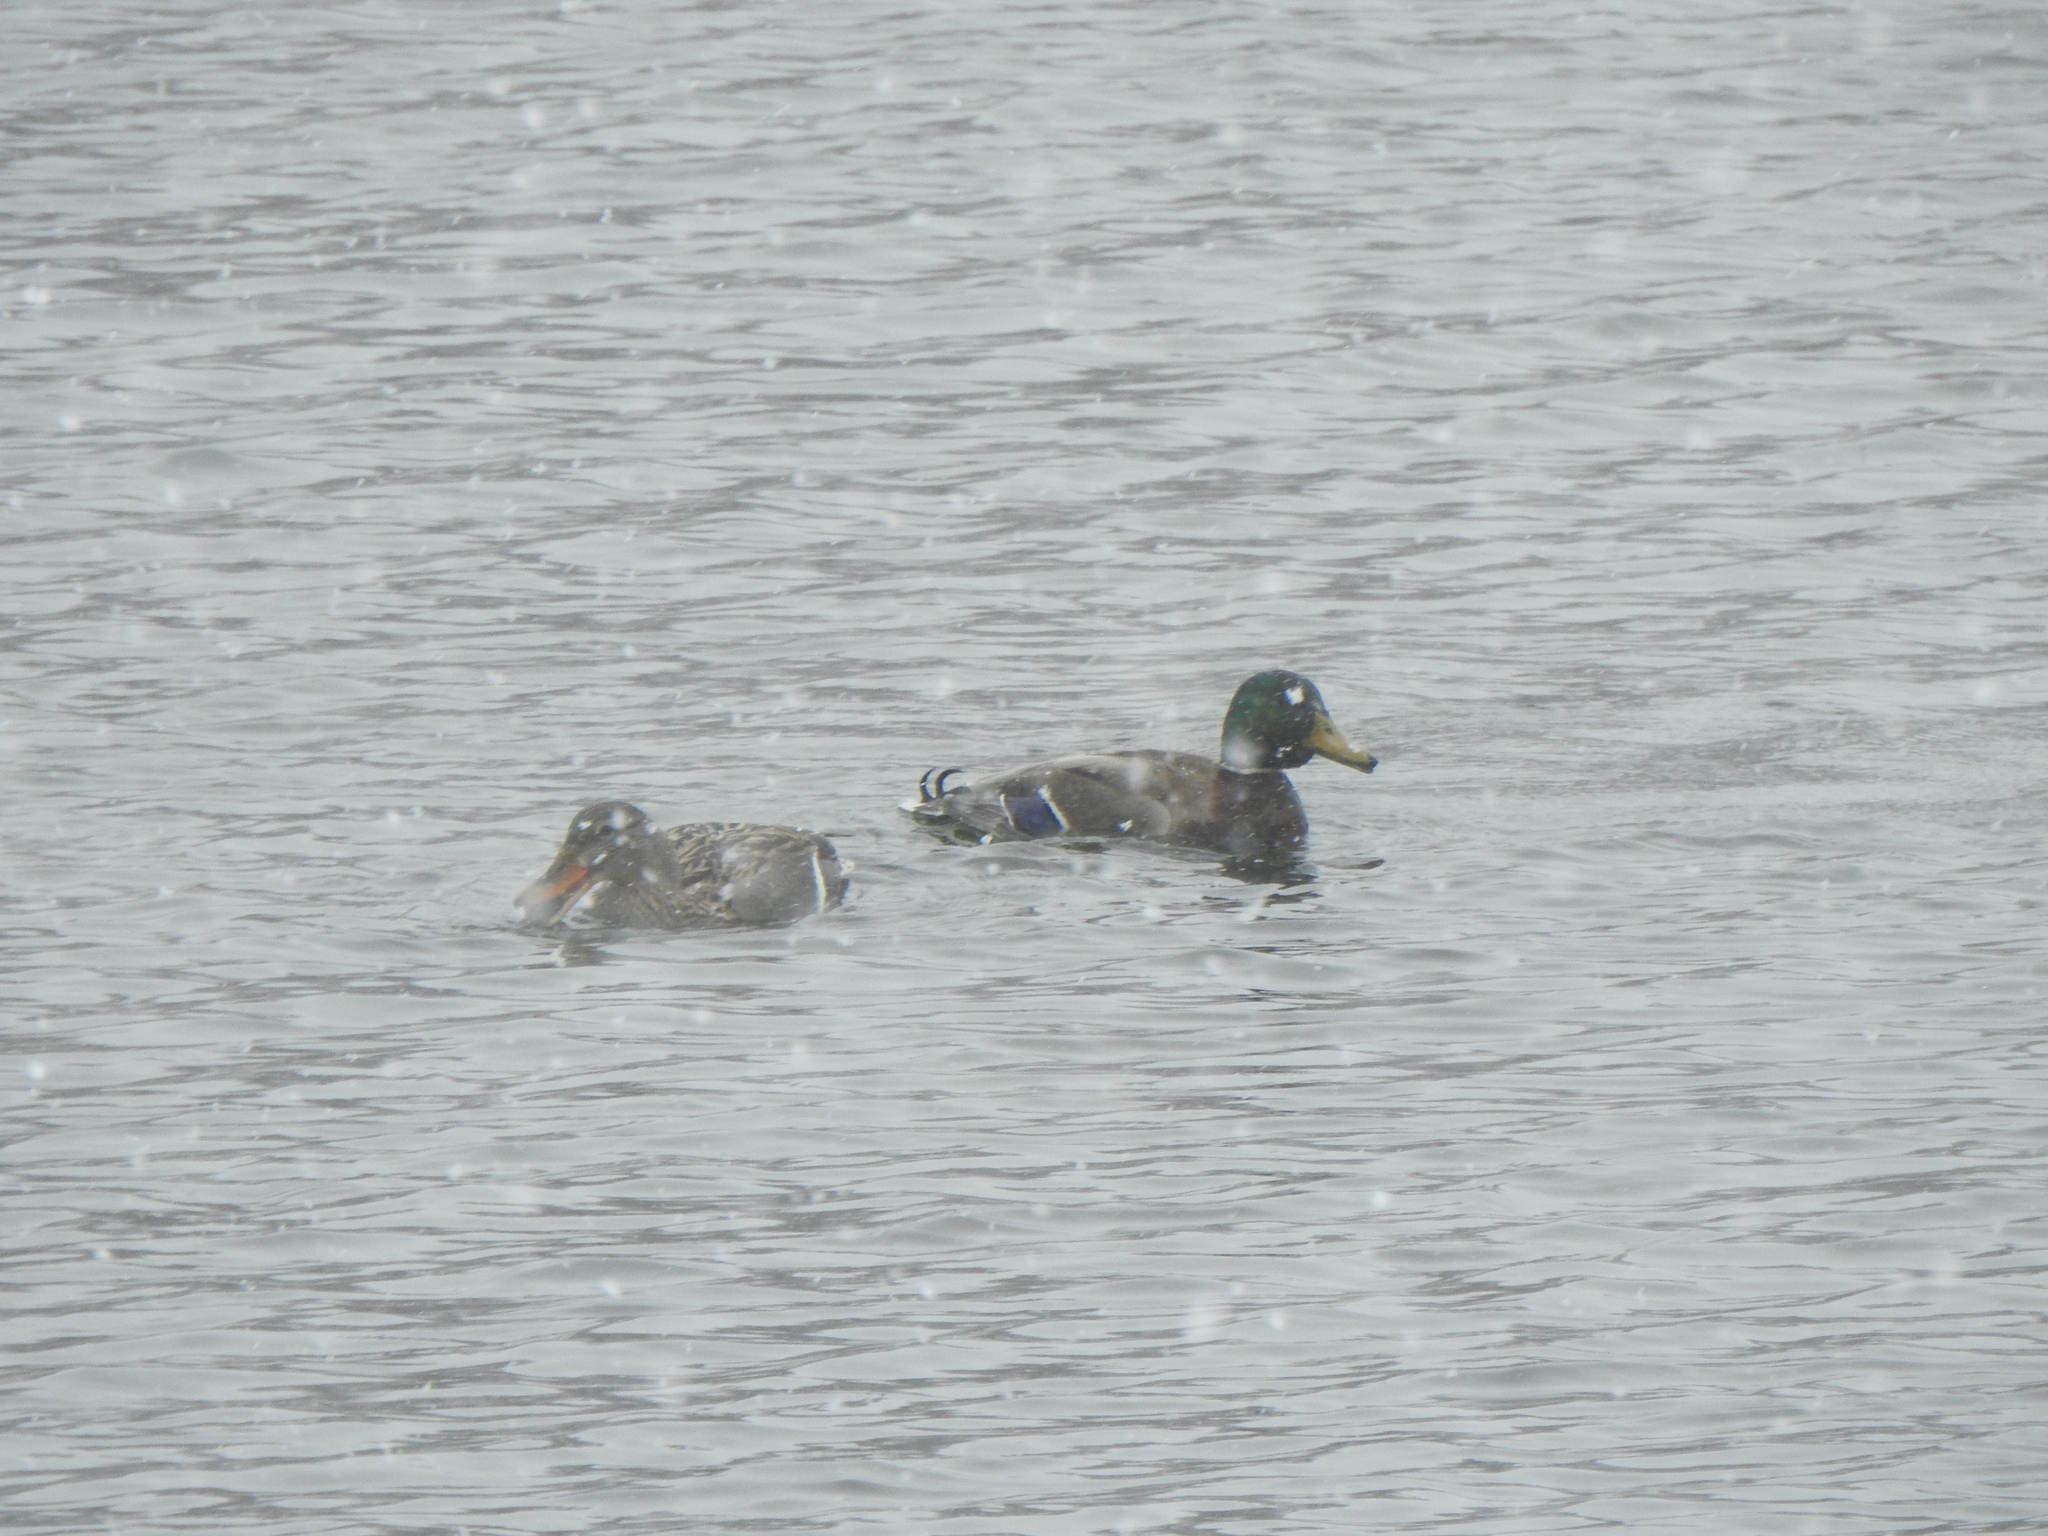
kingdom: Animalia
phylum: Chordata
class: Aves
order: Anseriformes
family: Anatidae
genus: Anas
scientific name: Anas platyrhynchos
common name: Mallard
